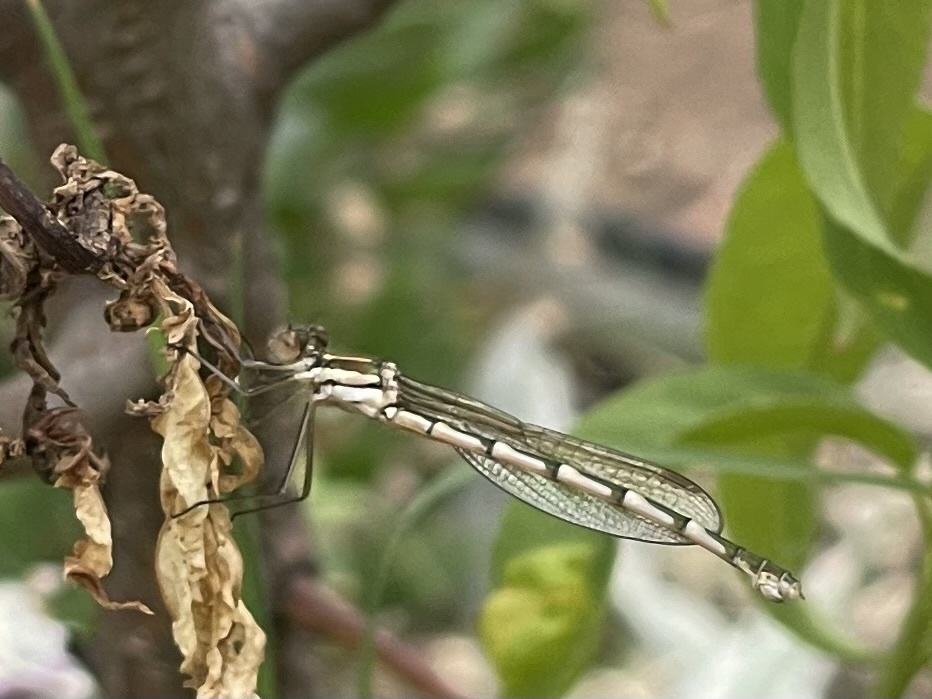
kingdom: Animalia
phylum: Arthropoda
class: Insecta
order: Odonata
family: Lestidae
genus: Austrolestes
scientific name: Austrolestes annulosus
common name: Blue ringtail
